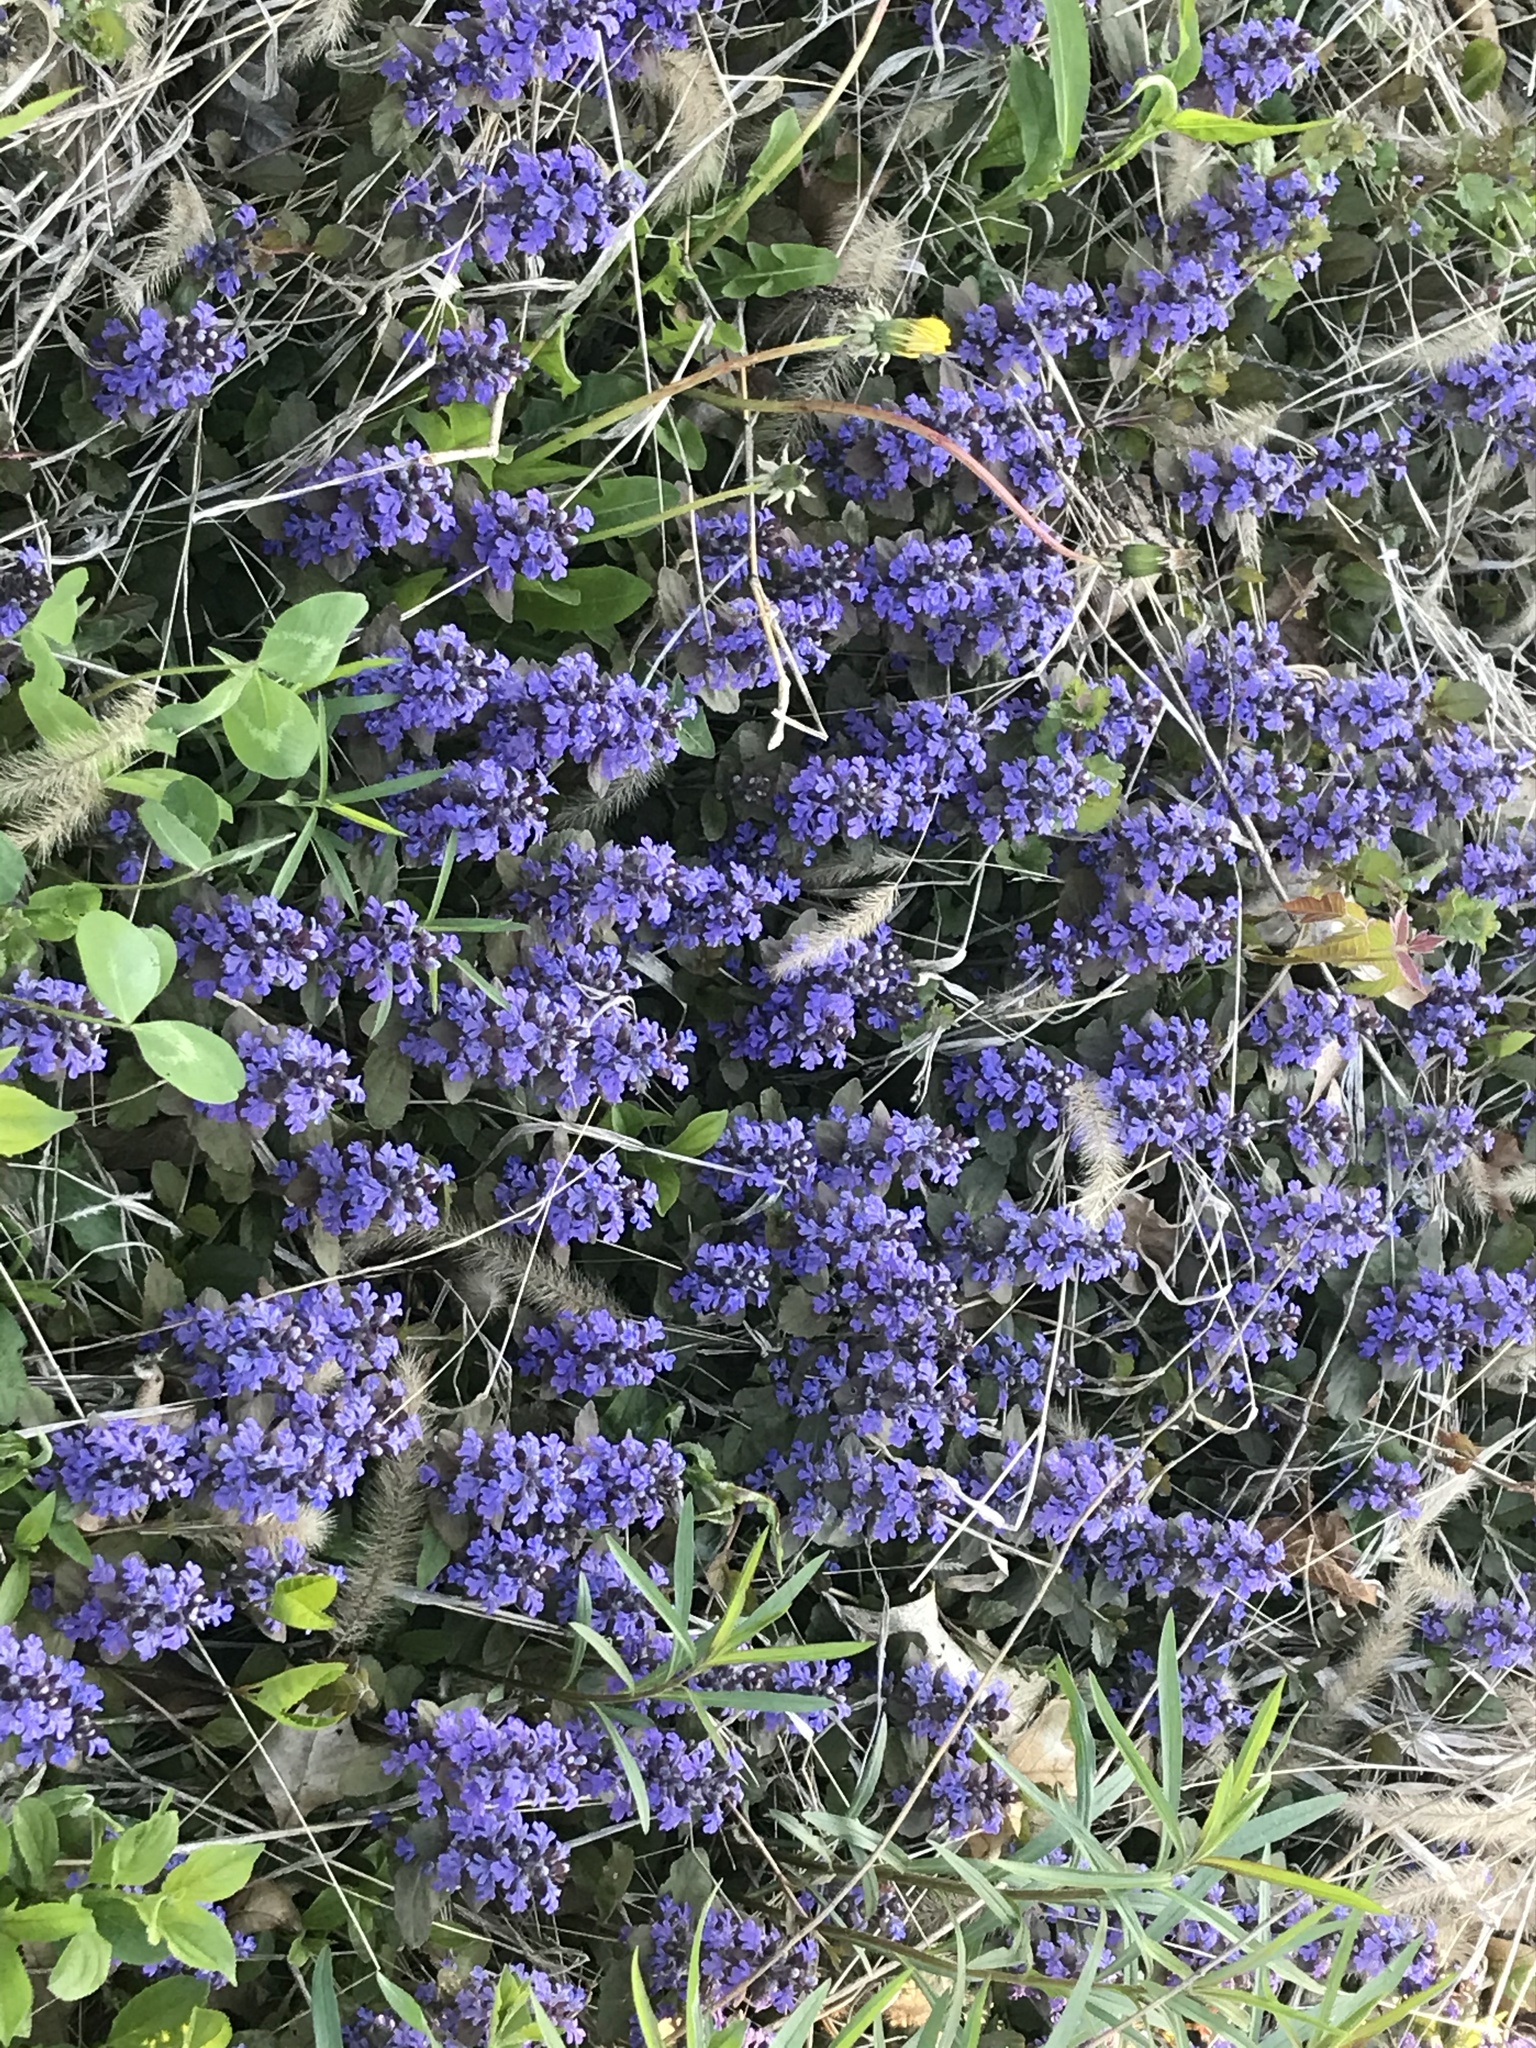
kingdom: Plantae
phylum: Tracheophyta
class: Magnoliopsida
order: Lamiales
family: Lamiaceae
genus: Ajuga
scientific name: Ajuga reptans
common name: Bugle
